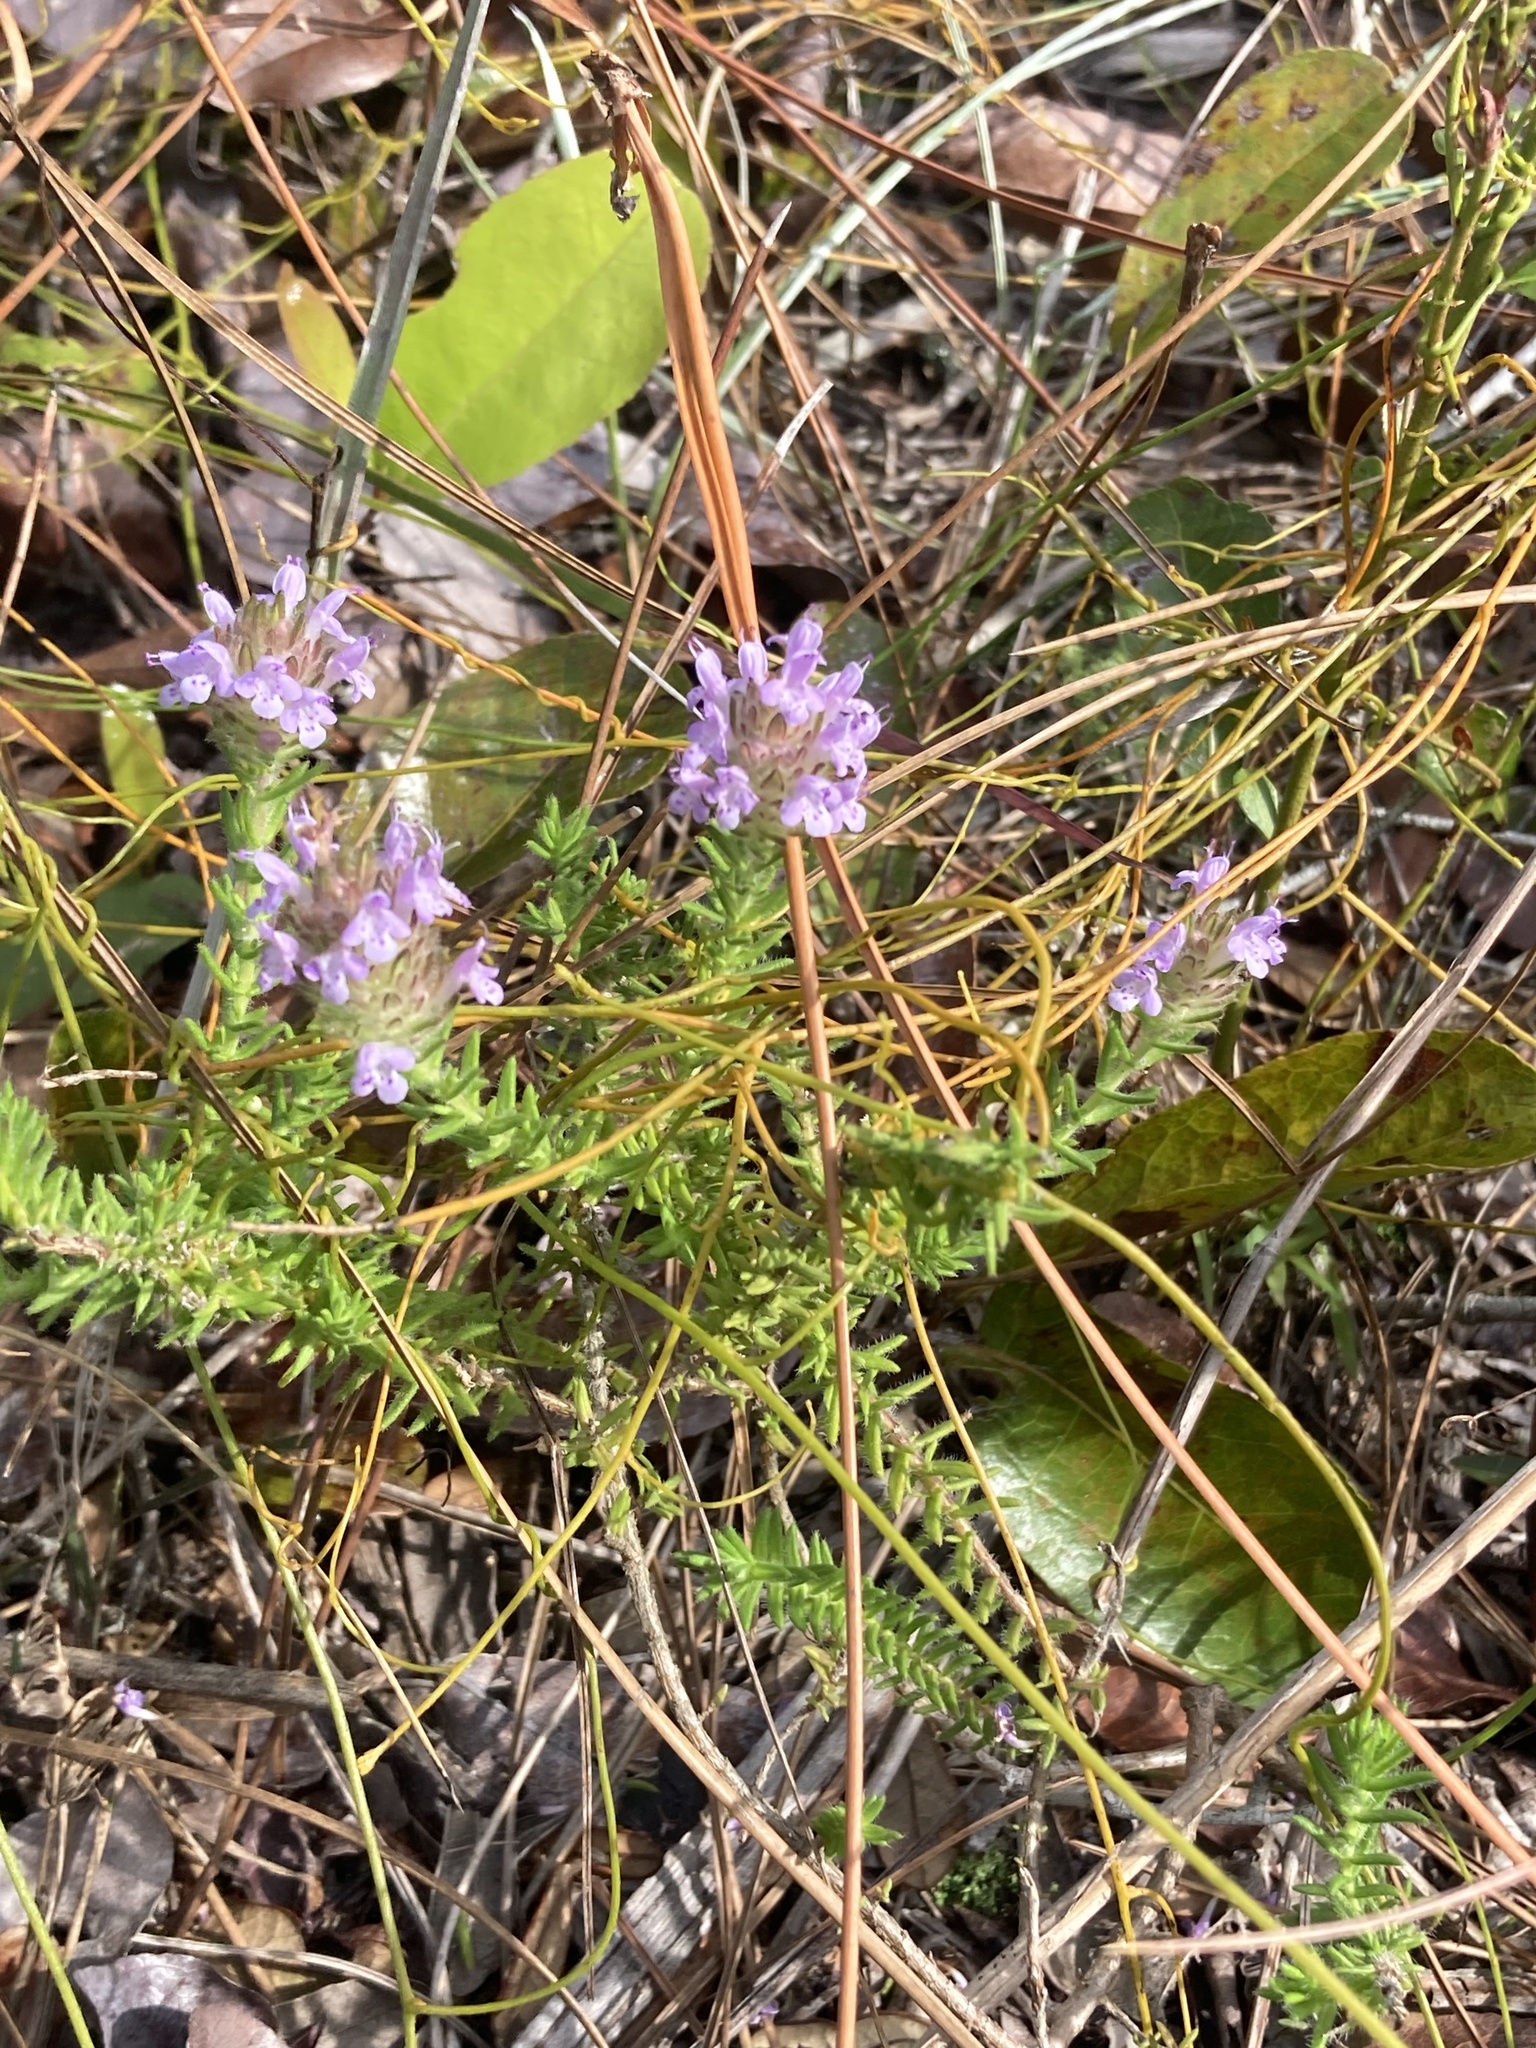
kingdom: Plantae
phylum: Tracheophyta
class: Magnoliopsida
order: Lamiales
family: Lamiaceae
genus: Piloblephis
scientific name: Piloblephis rigida
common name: Wild pennyroyal
